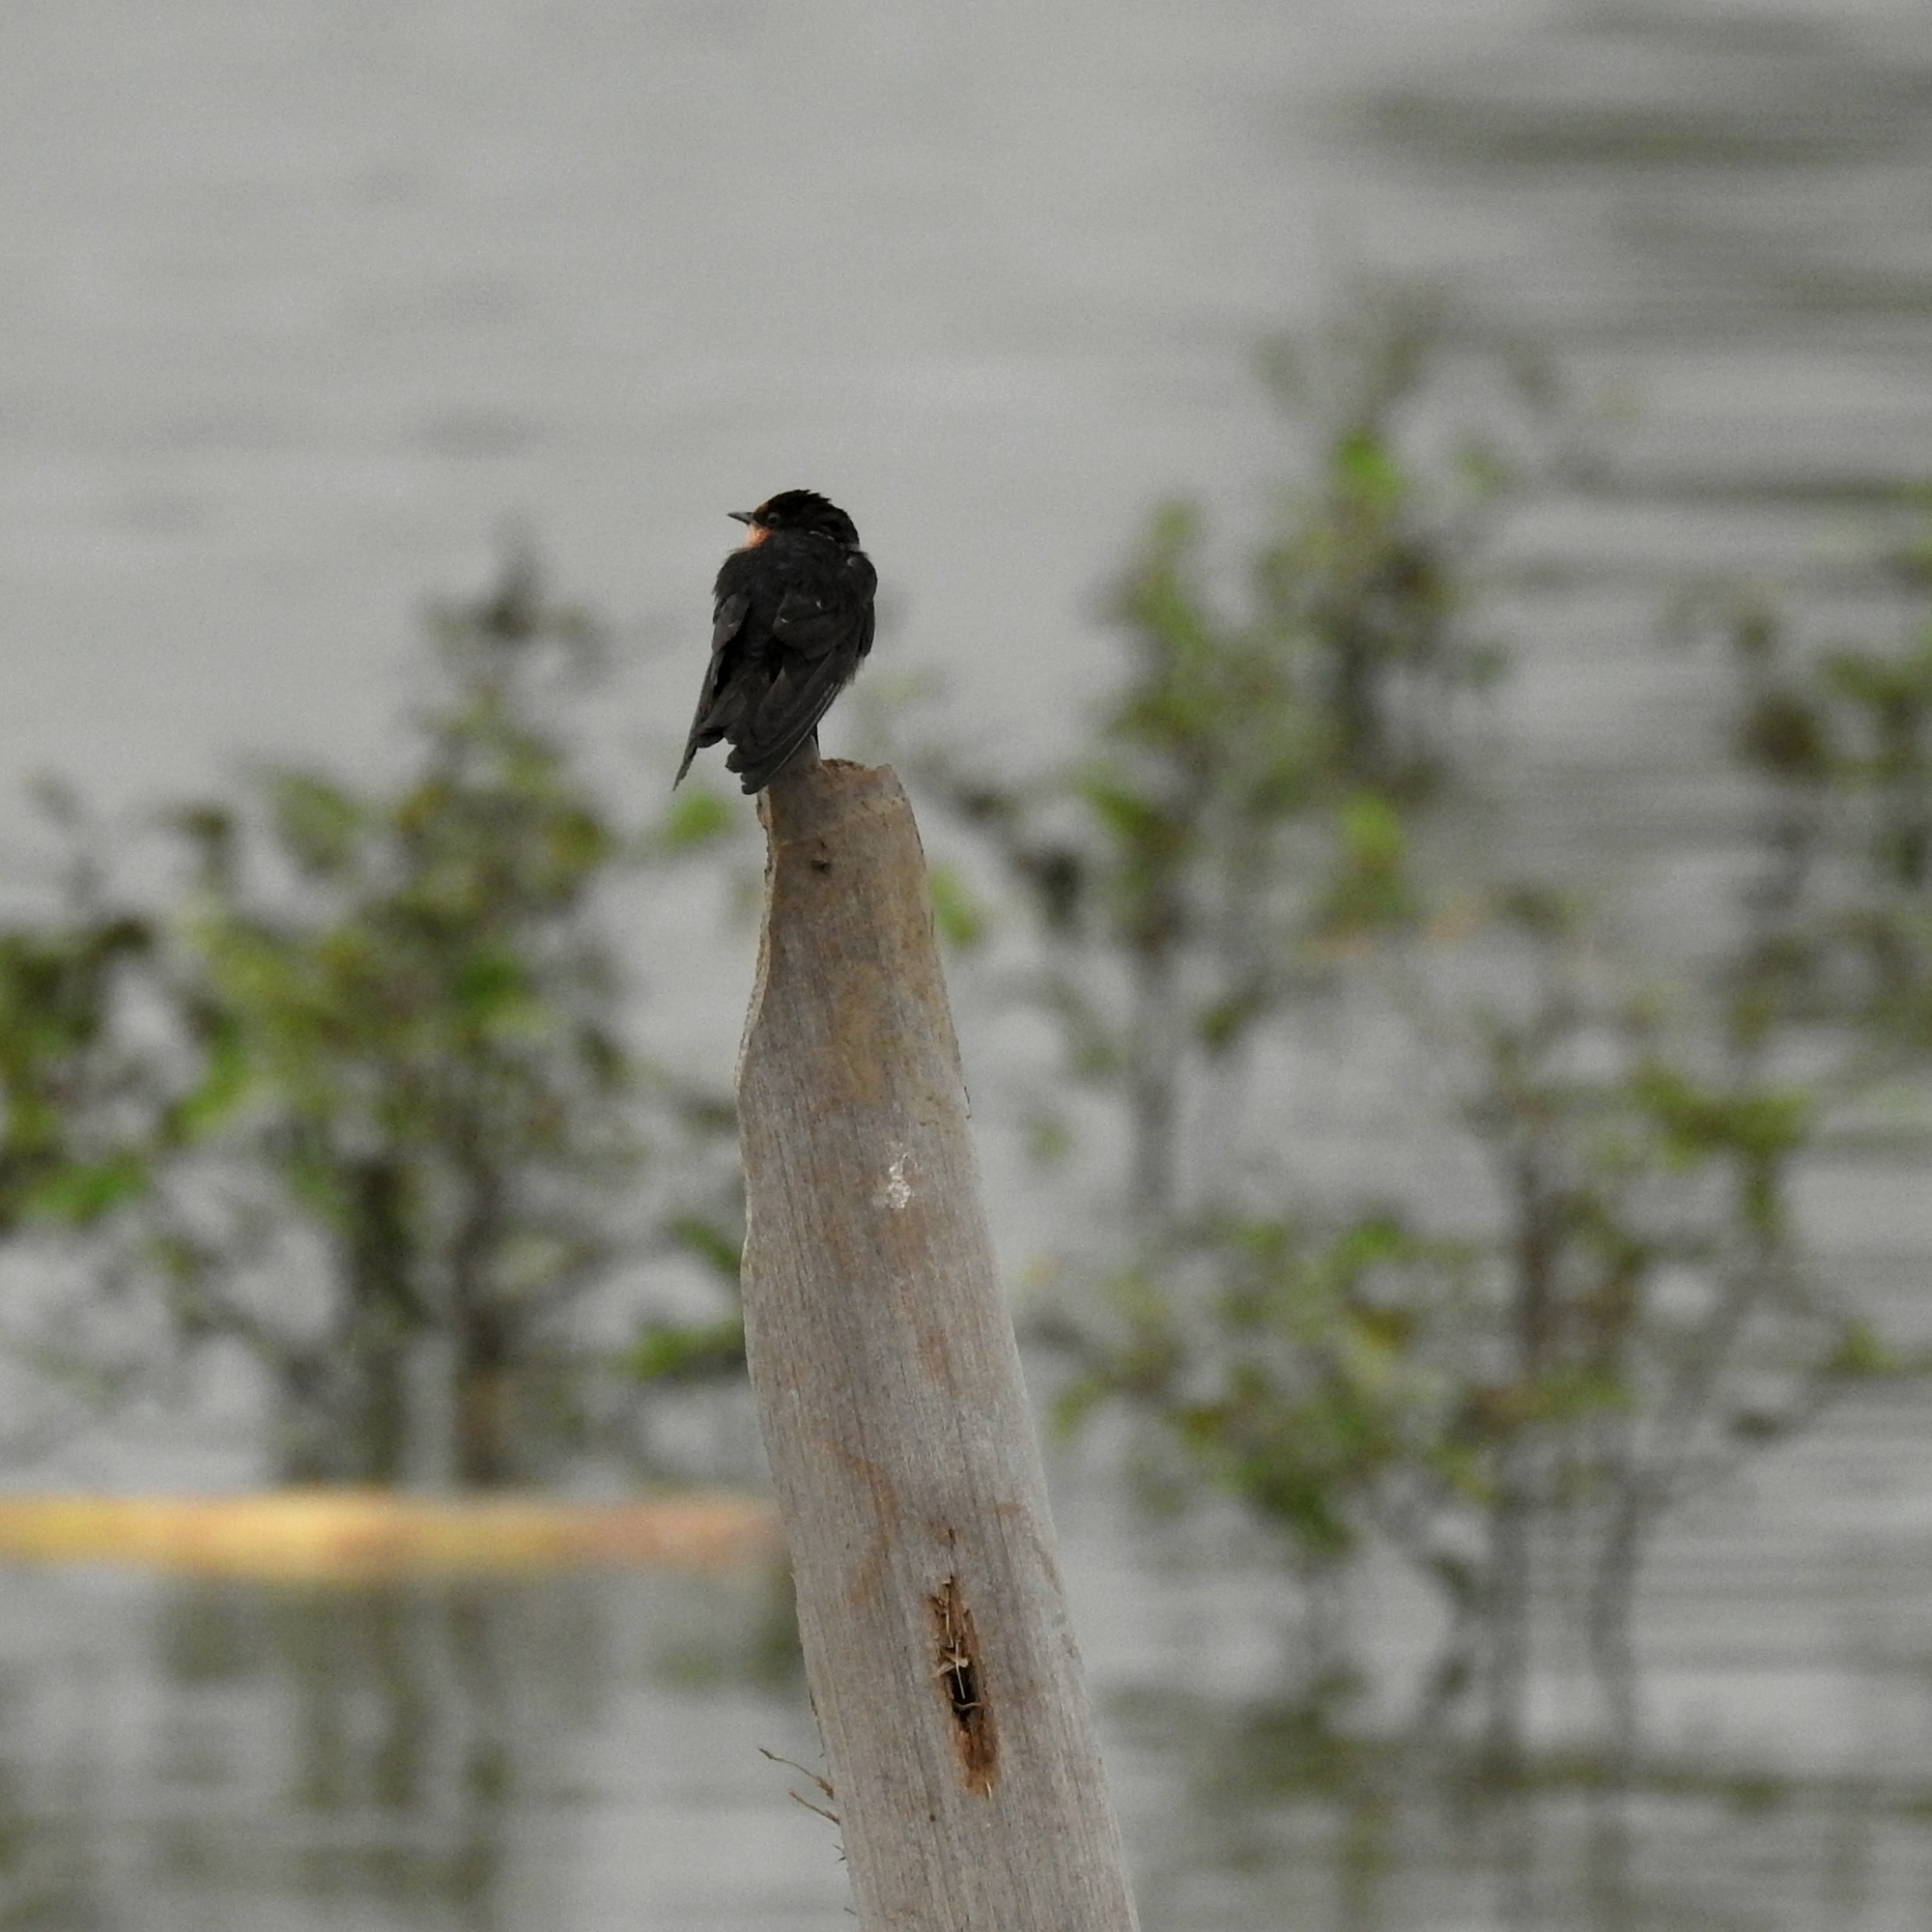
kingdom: Animalia
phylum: Chordata
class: Aves
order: Passeriformes
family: Hirundinidae
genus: Hirundo
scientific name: Hirundo tahitica
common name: Pacific swallow
